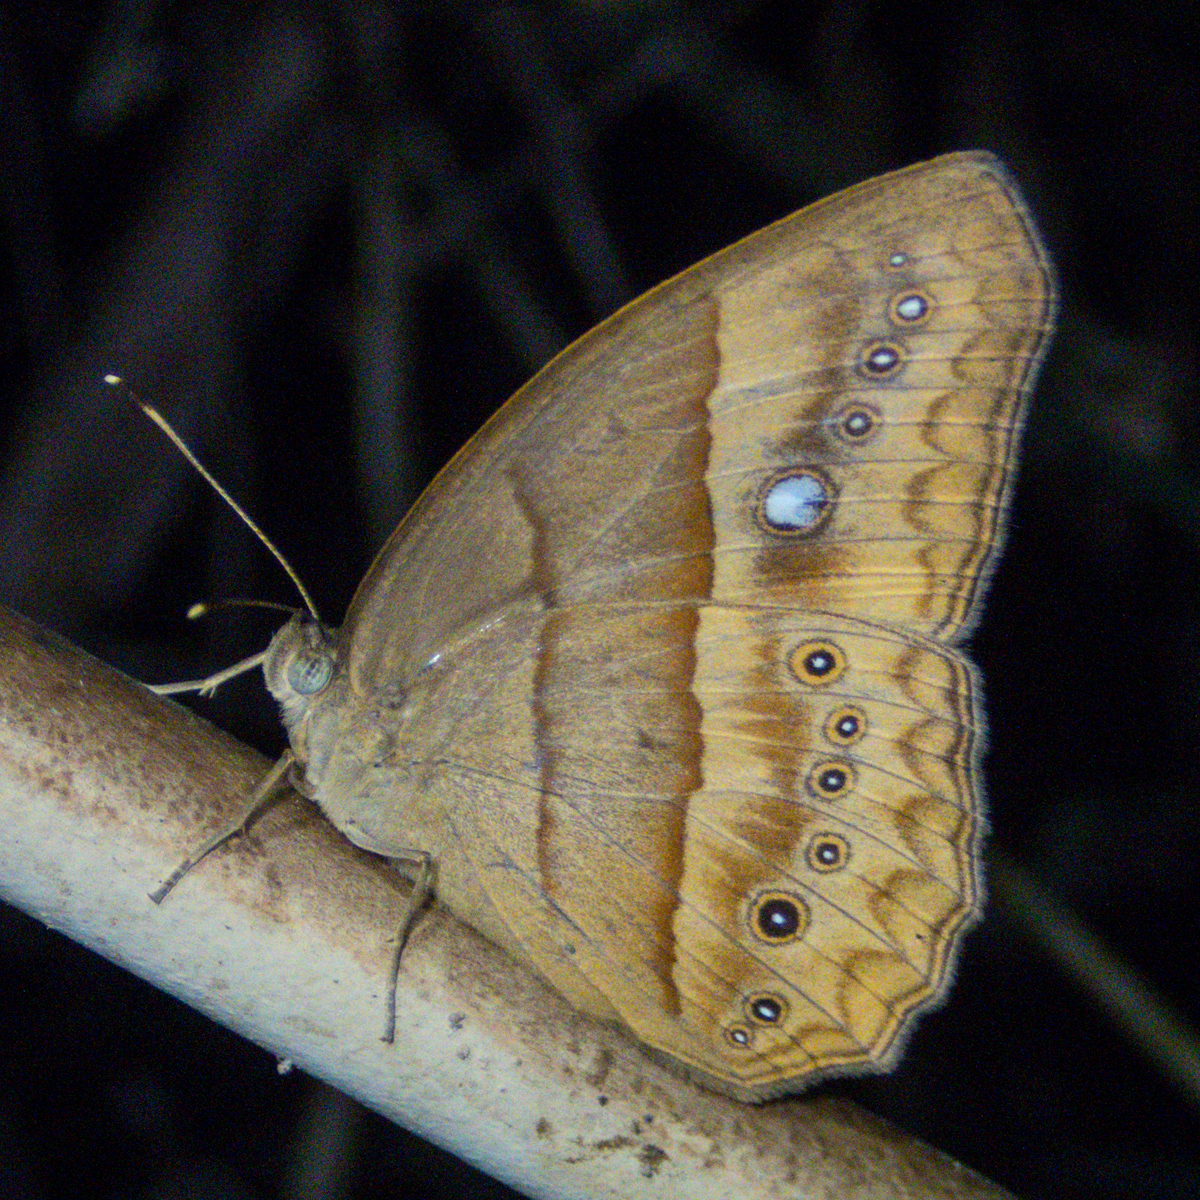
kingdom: Animalia
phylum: Arthropoda
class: Insecta
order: Lepidoptera
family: Nymphalidae
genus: Mycalesis
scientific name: Mycalesis mnasicles
